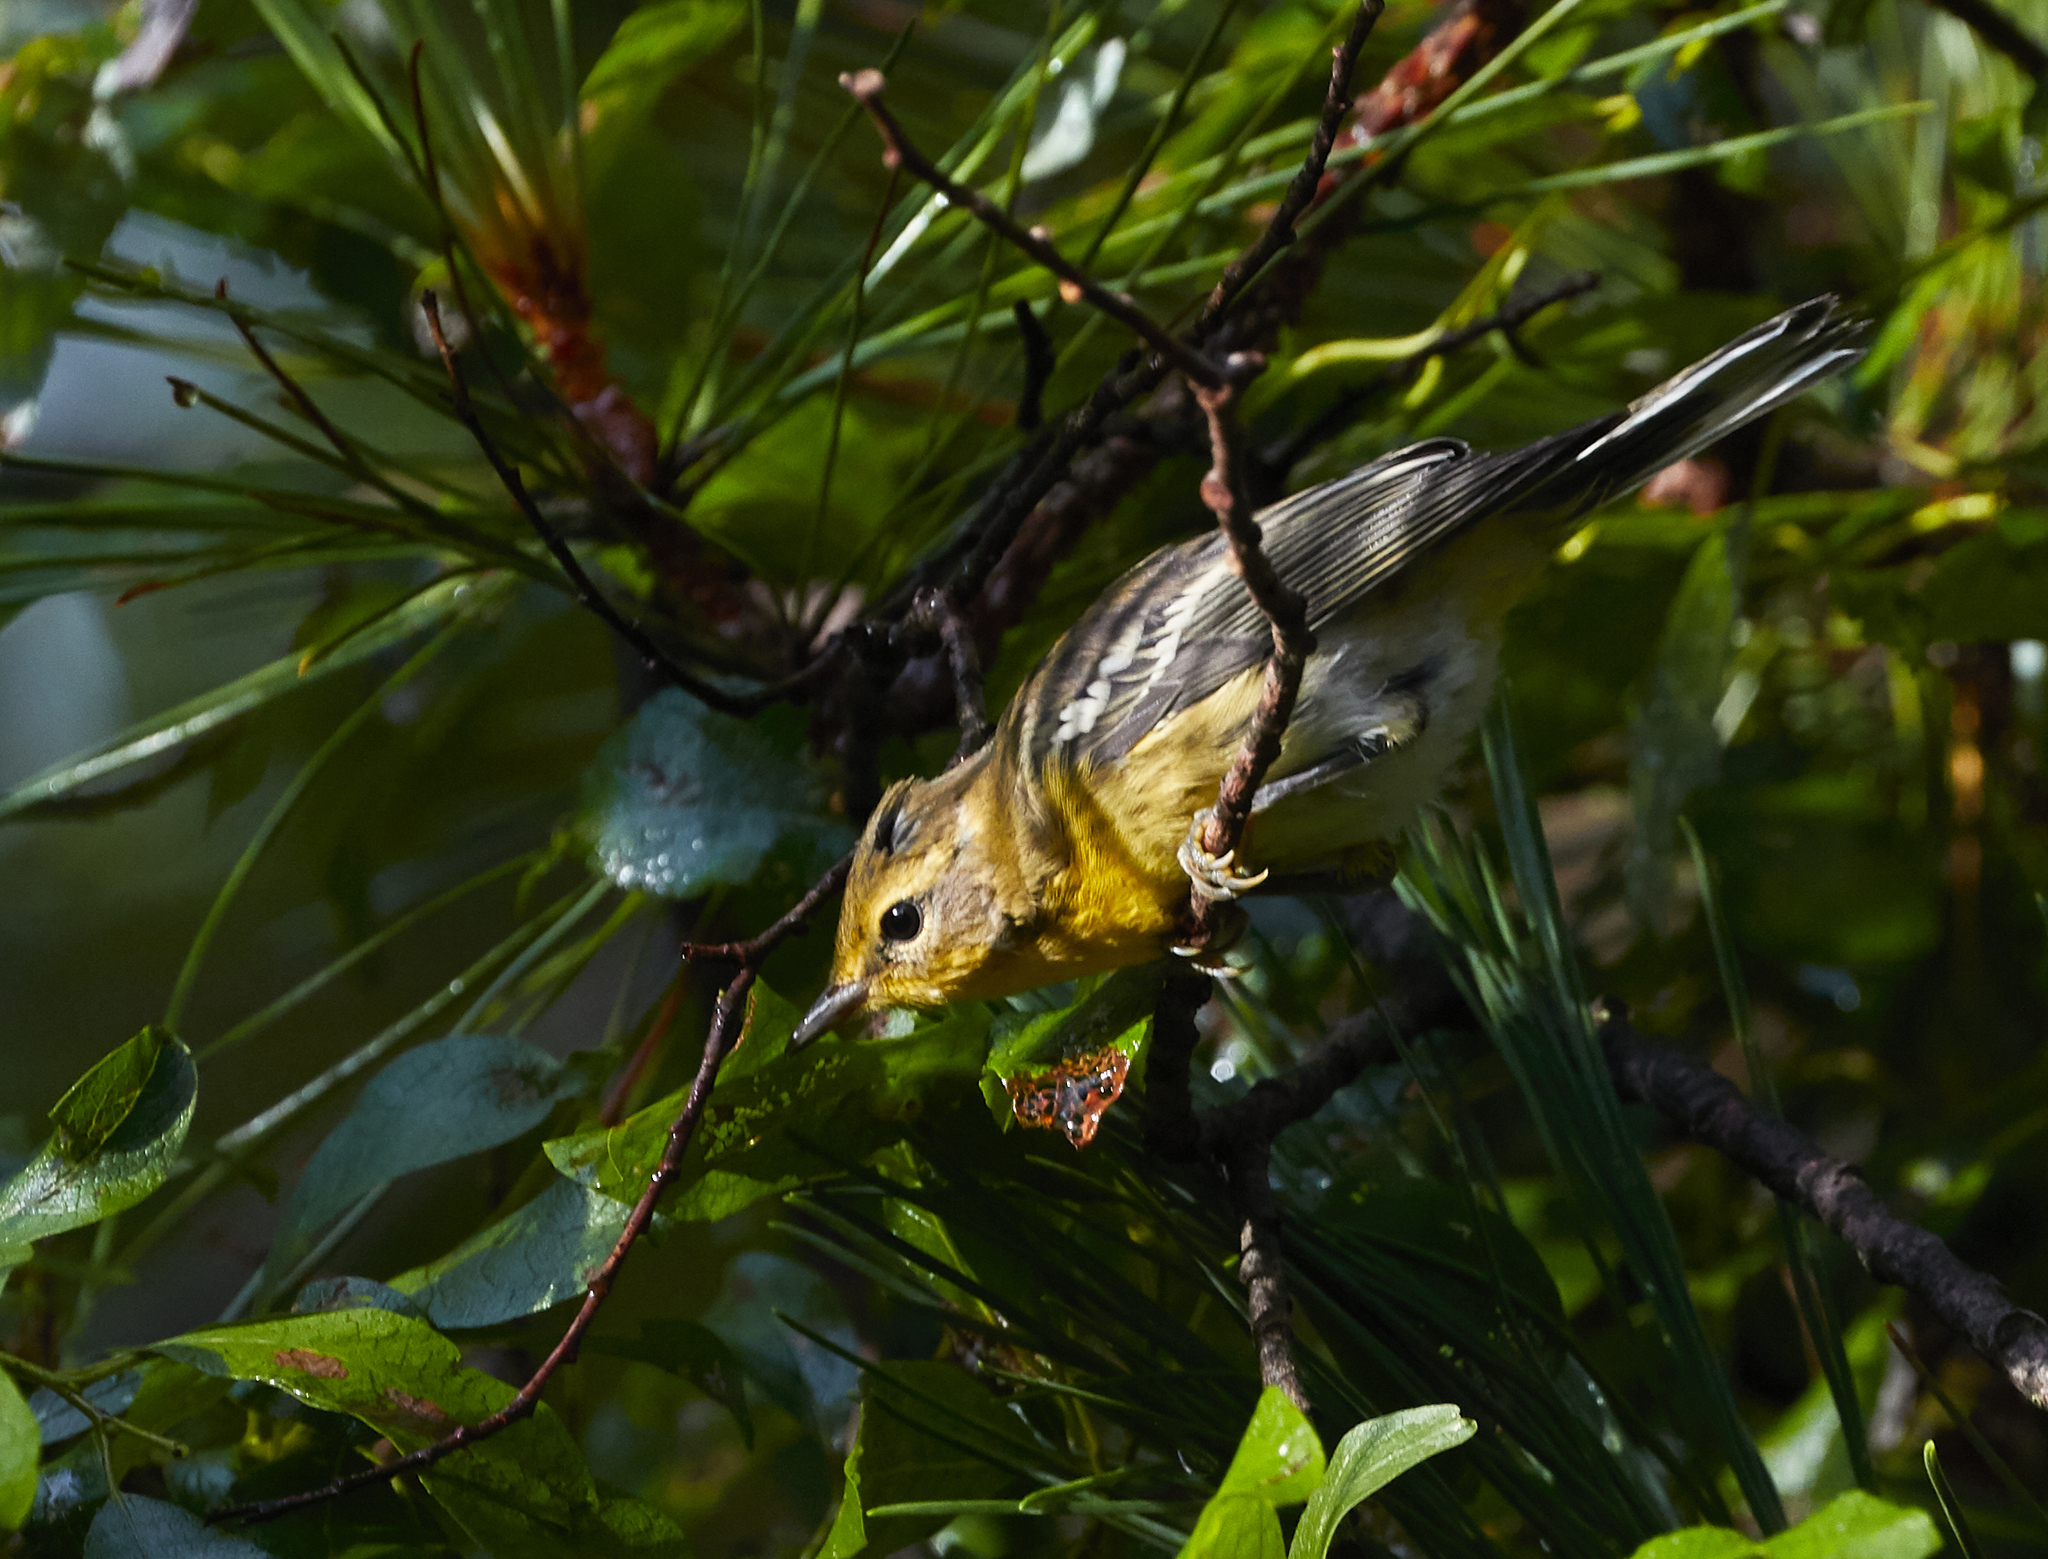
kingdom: Animalia
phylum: Chordata
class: Aves
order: Passeriformes
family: Parulidae
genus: Setophaga
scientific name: Setophaga fusca
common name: Blackburnian warbler
